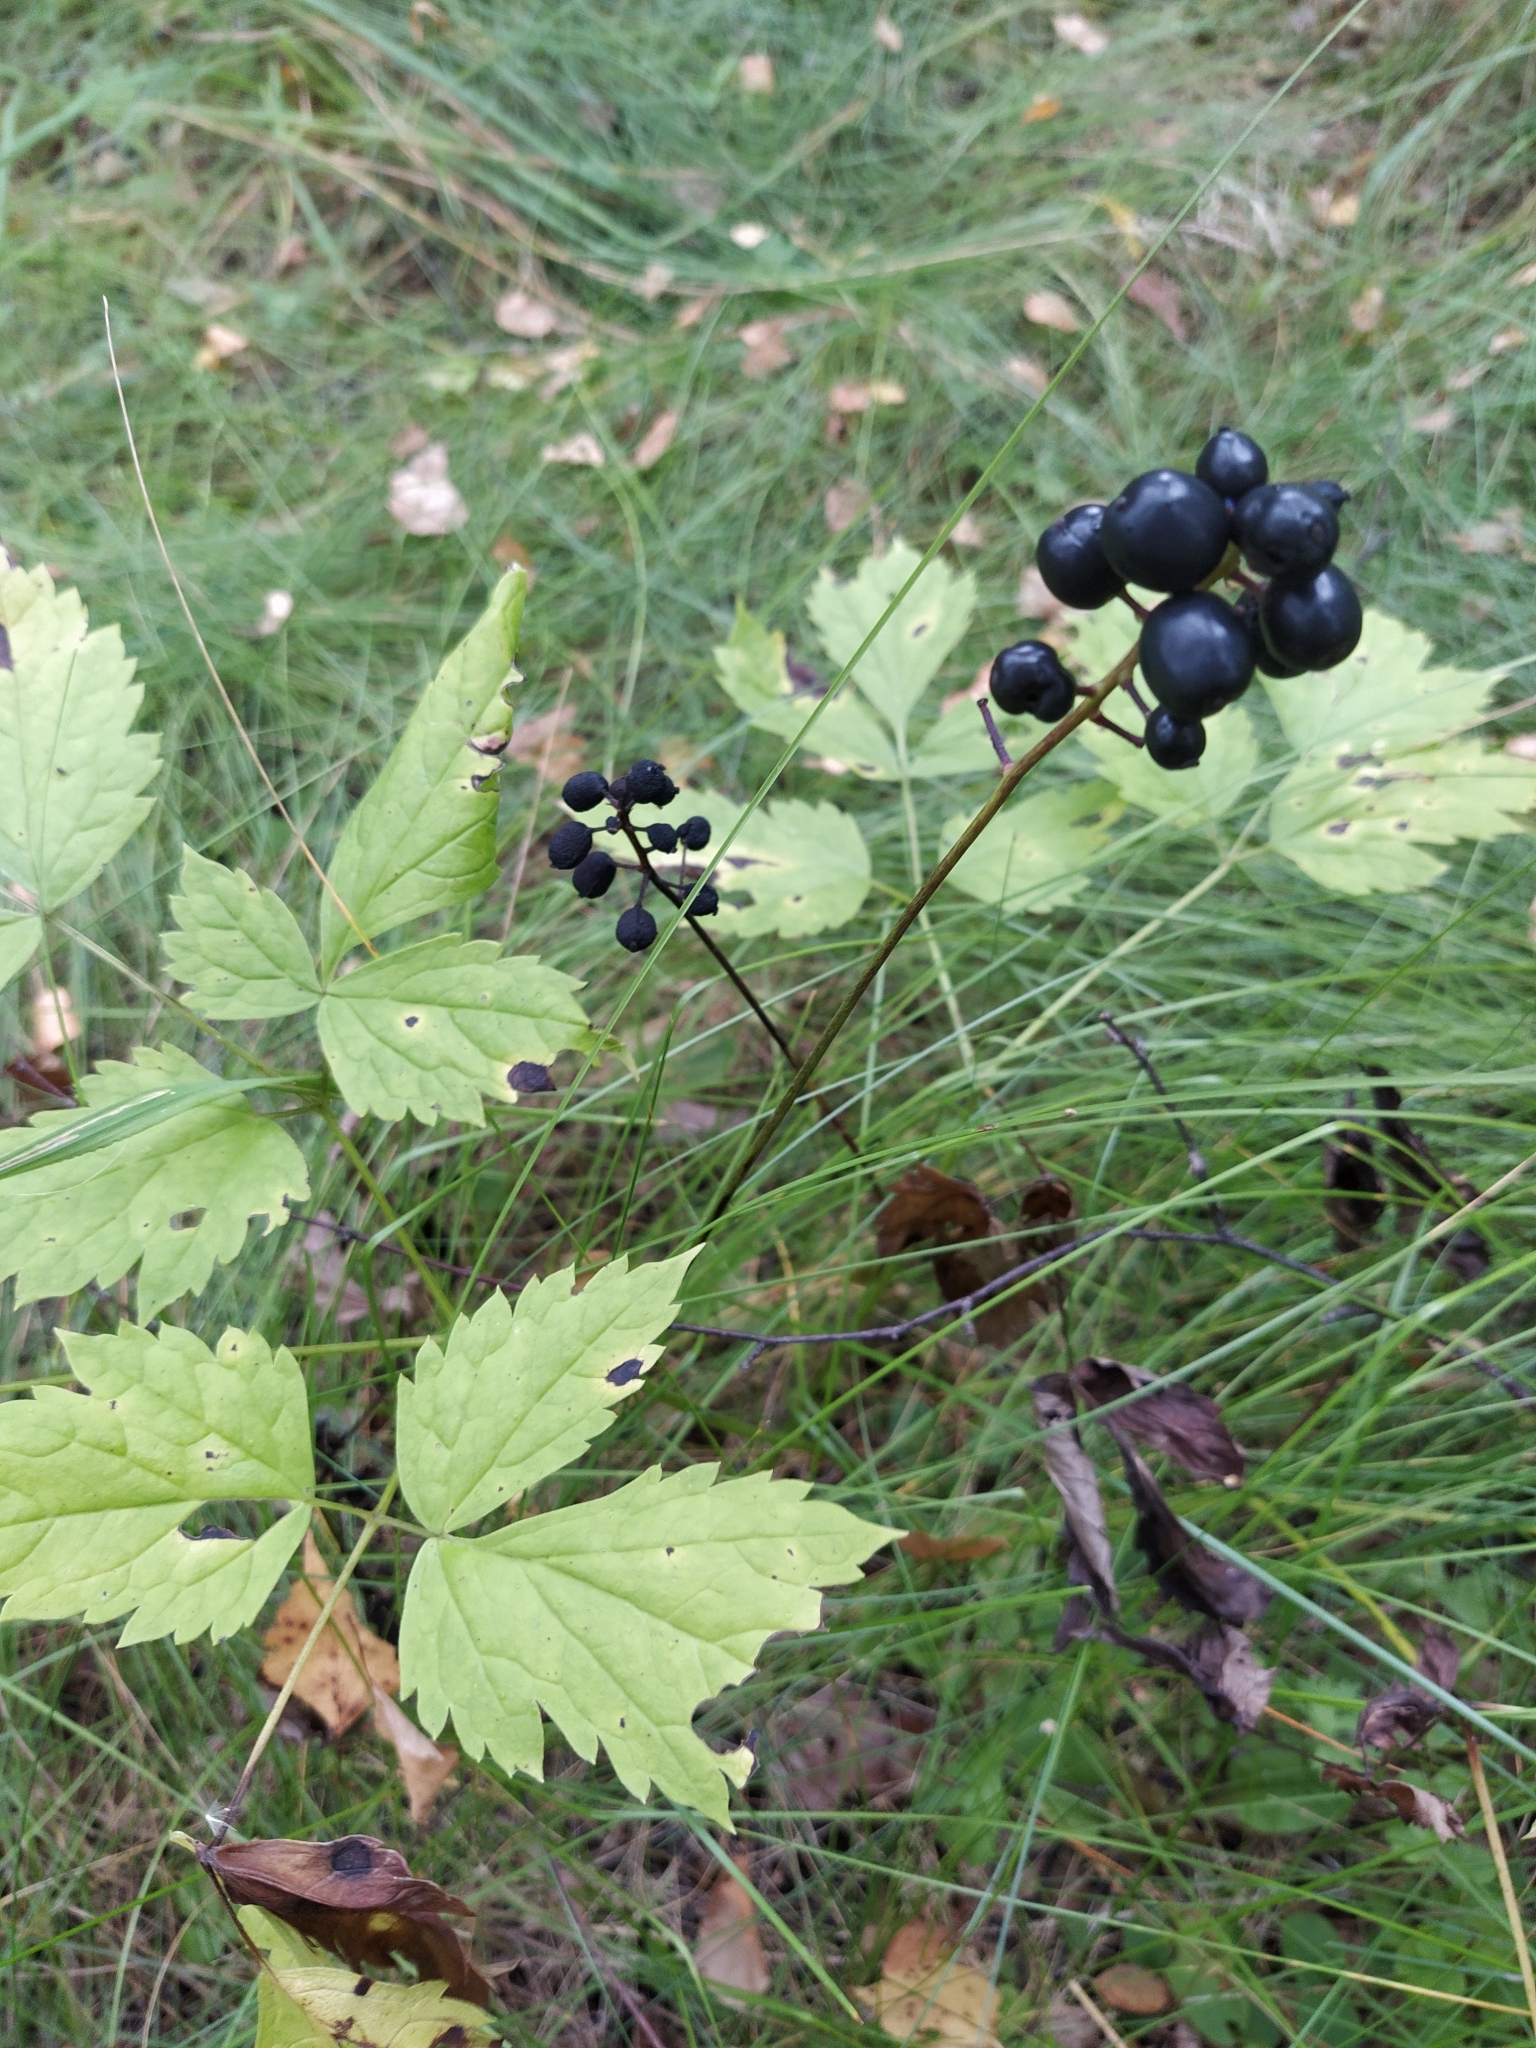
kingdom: Plantae
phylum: Tracheophyta
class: Magnoliopsida
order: Ranunculales
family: Ranunculaceae
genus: Actaea
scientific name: Actaea spicata
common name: Baneberry
